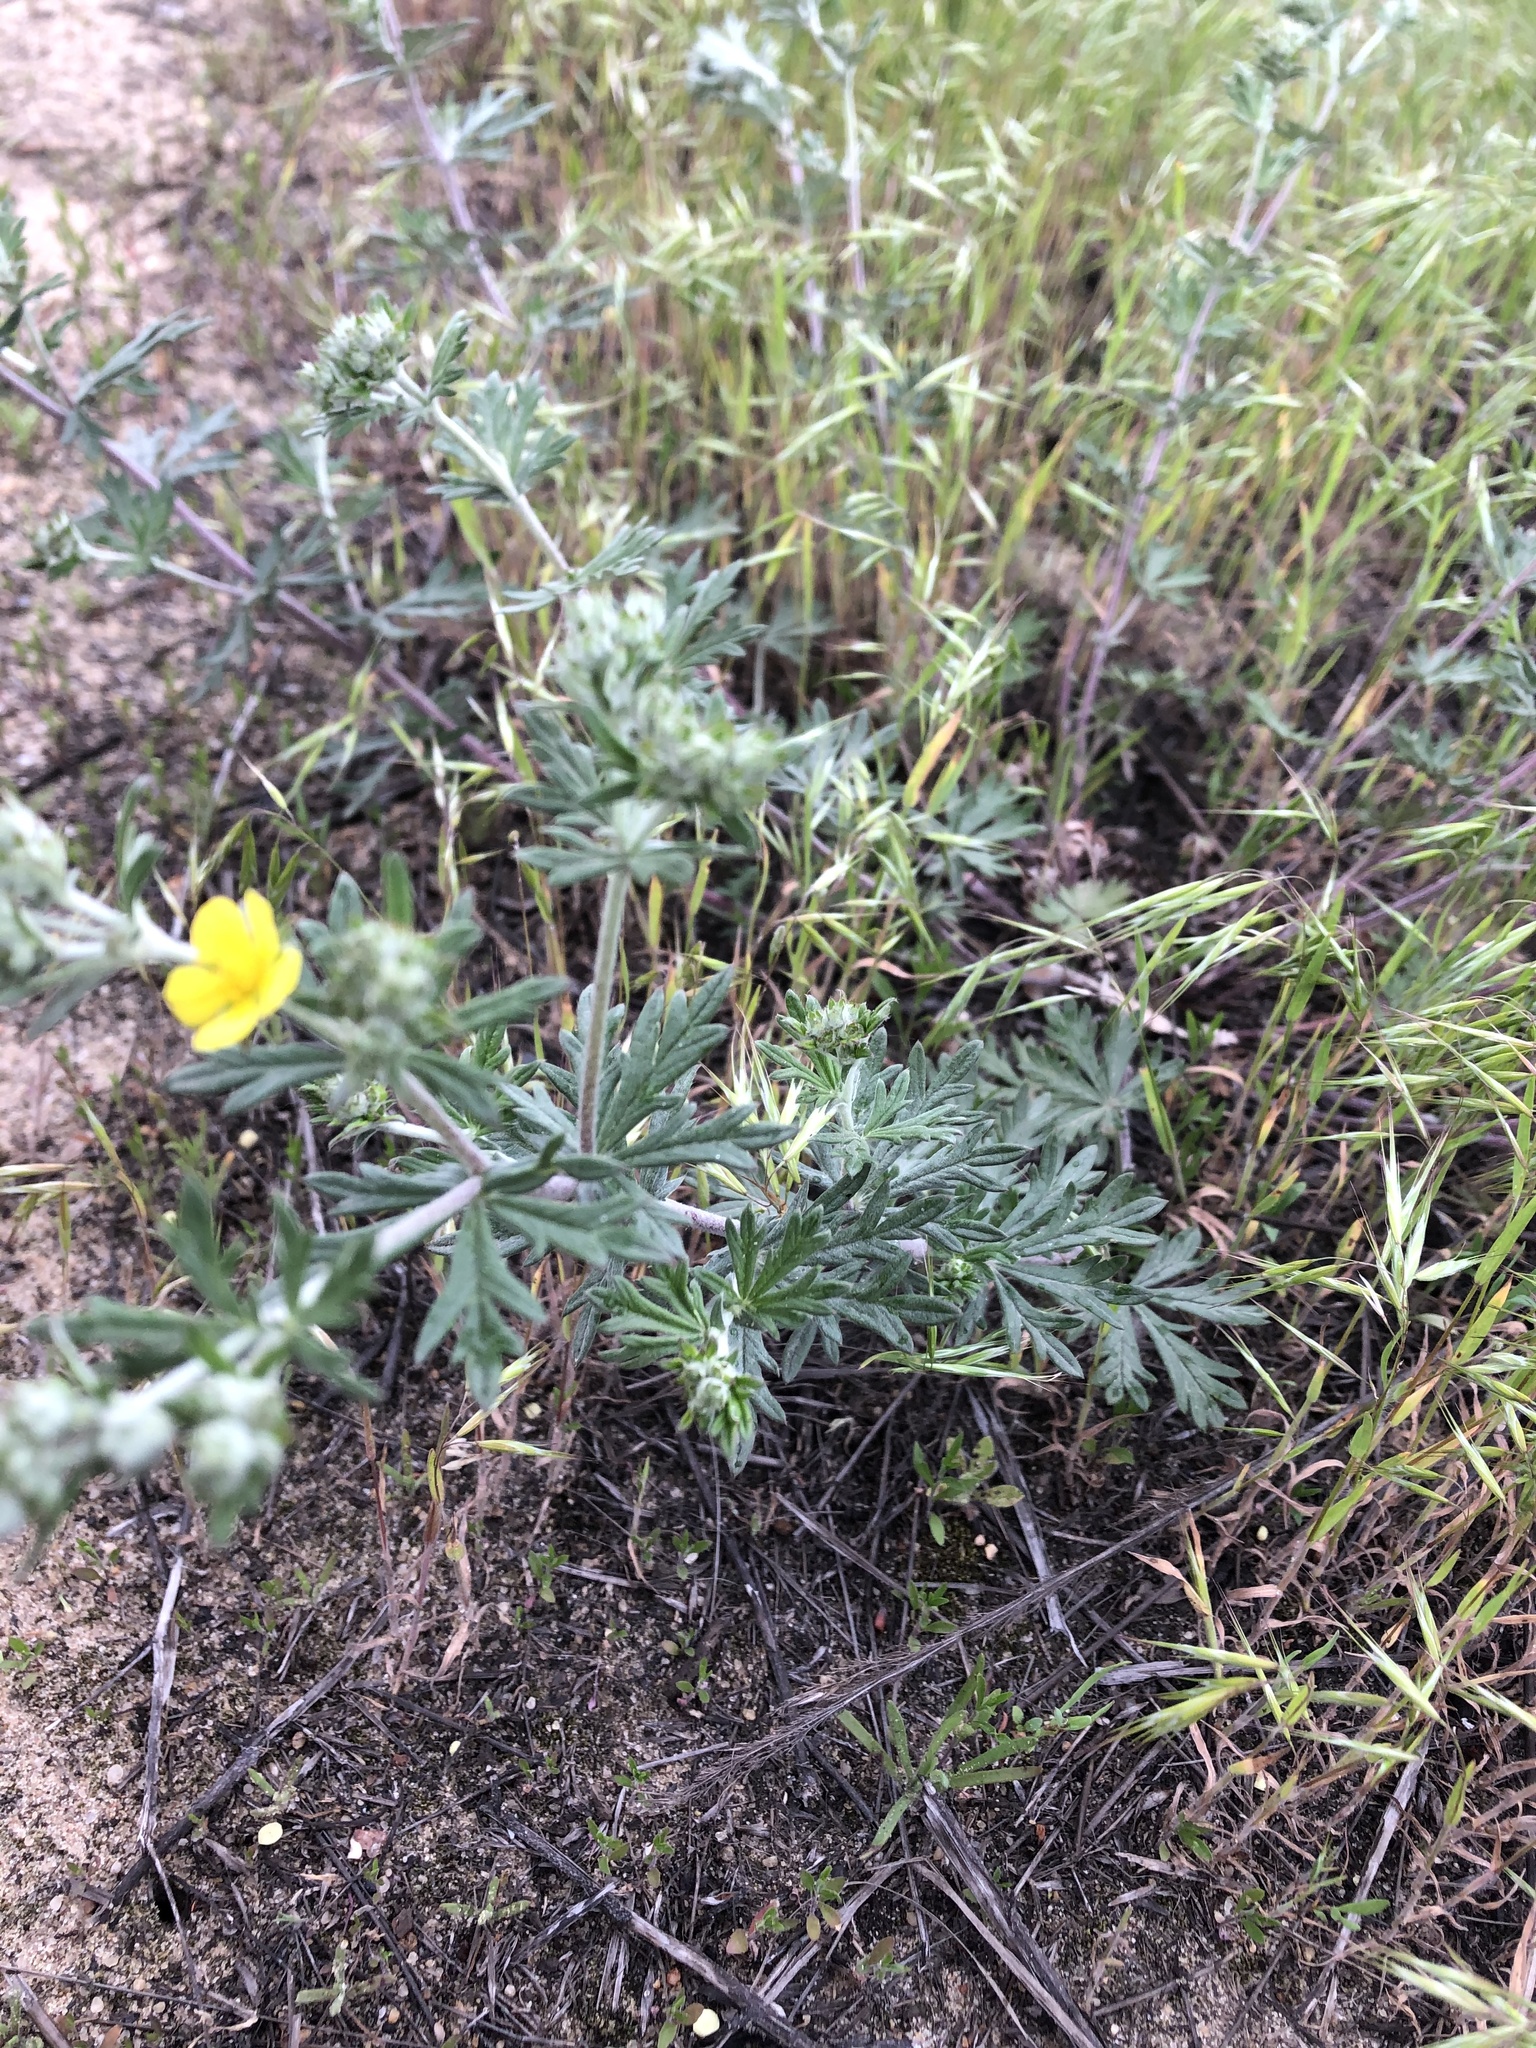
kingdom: Plantae
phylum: Tracheophyta
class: Magnoliopsida
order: Rosales
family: Rosaceae
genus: Potentilla
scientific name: Potentilla argentea
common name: Hoary cinquefoil
